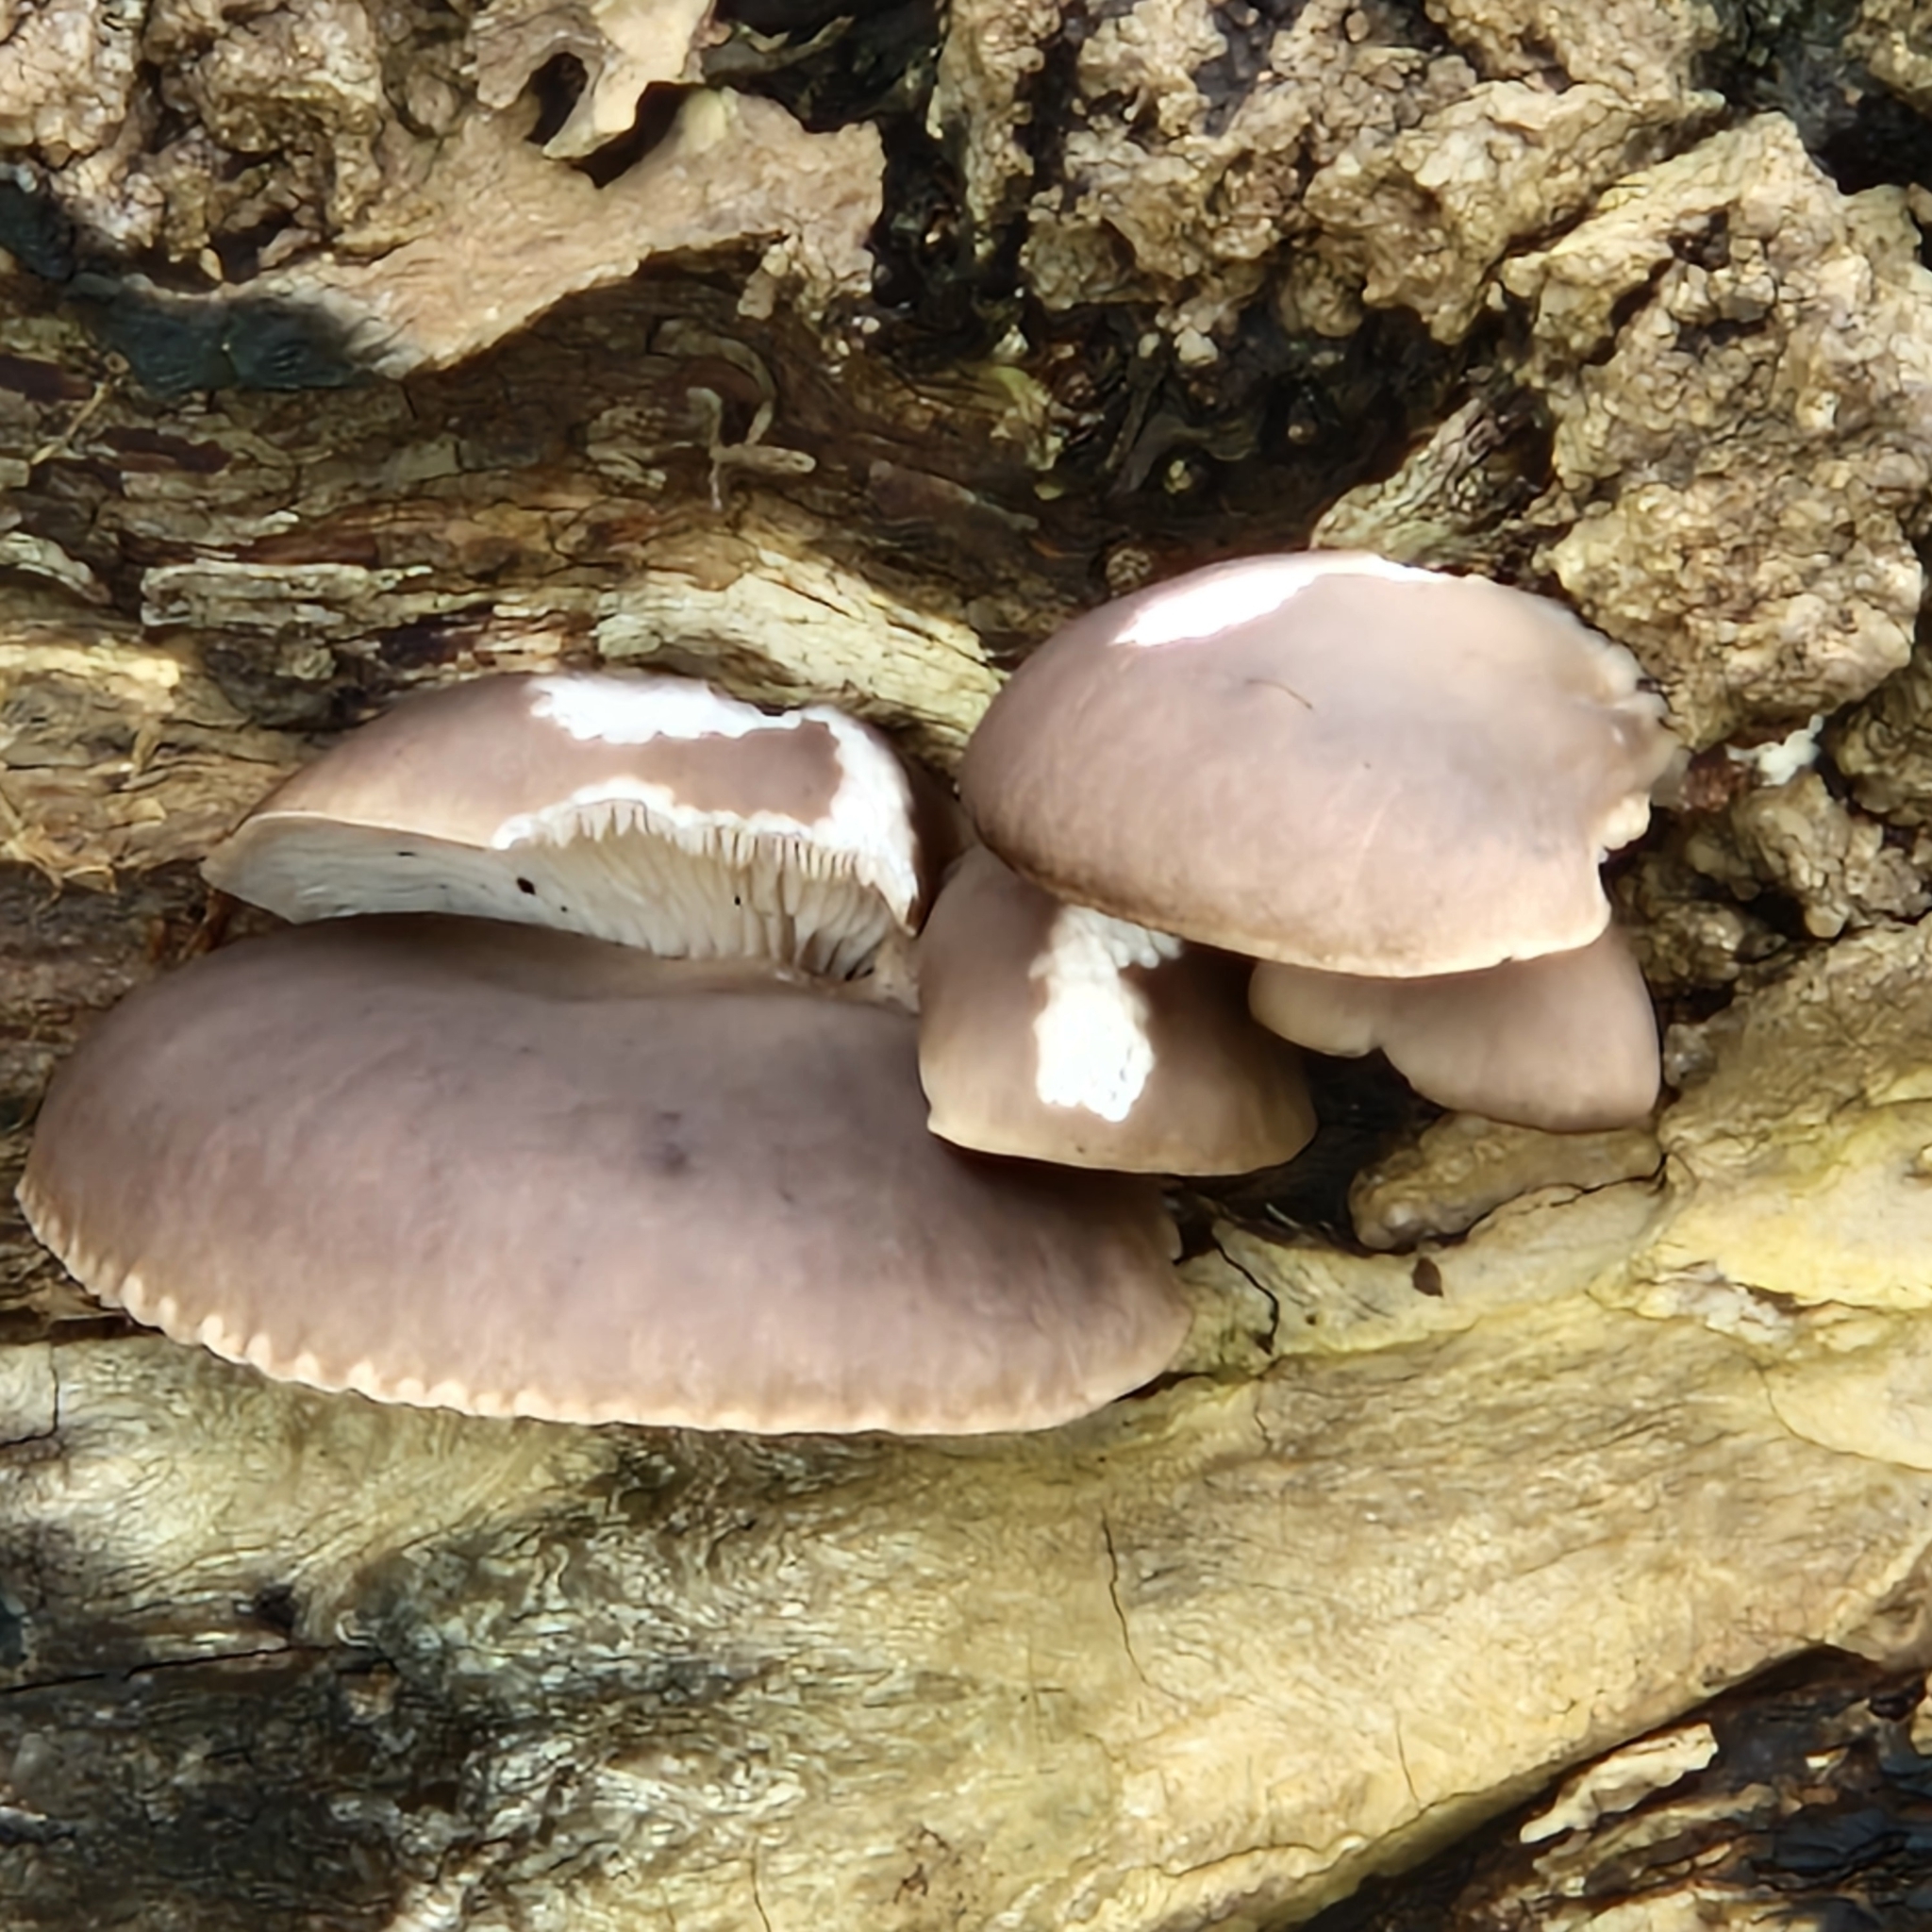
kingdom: Fungi
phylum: Basidiomycota
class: Agaricomycetes
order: Agaricales
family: Pleurotaceae
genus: Pleurotus
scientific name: Pleurotus ostreatus
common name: Oyster mushroom
